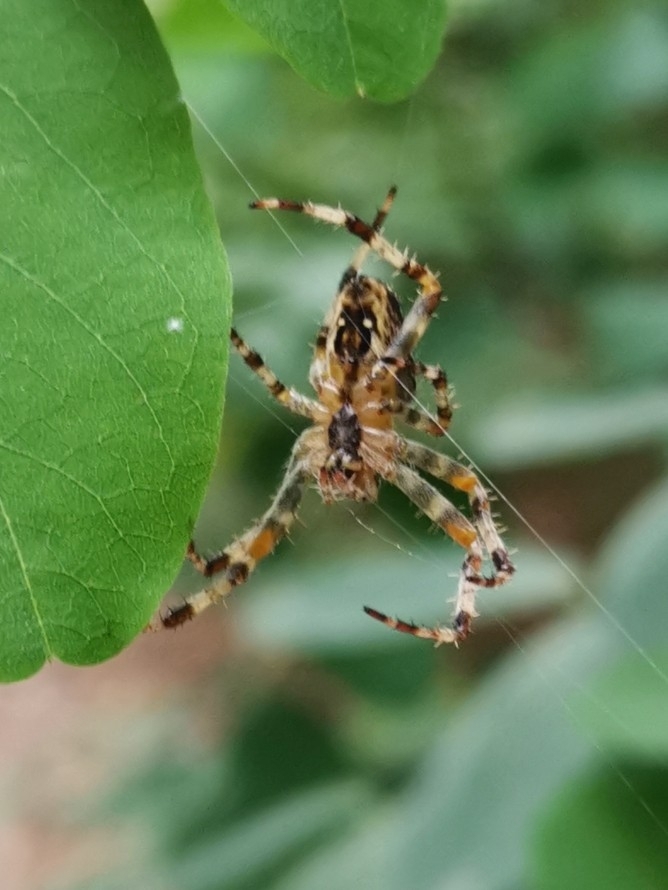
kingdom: Animalia
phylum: Arthropoda
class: Arachnida
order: Araneae
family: Araneidae
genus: Araneus
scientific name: Araneus diadematus
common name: Cross orbweaver
